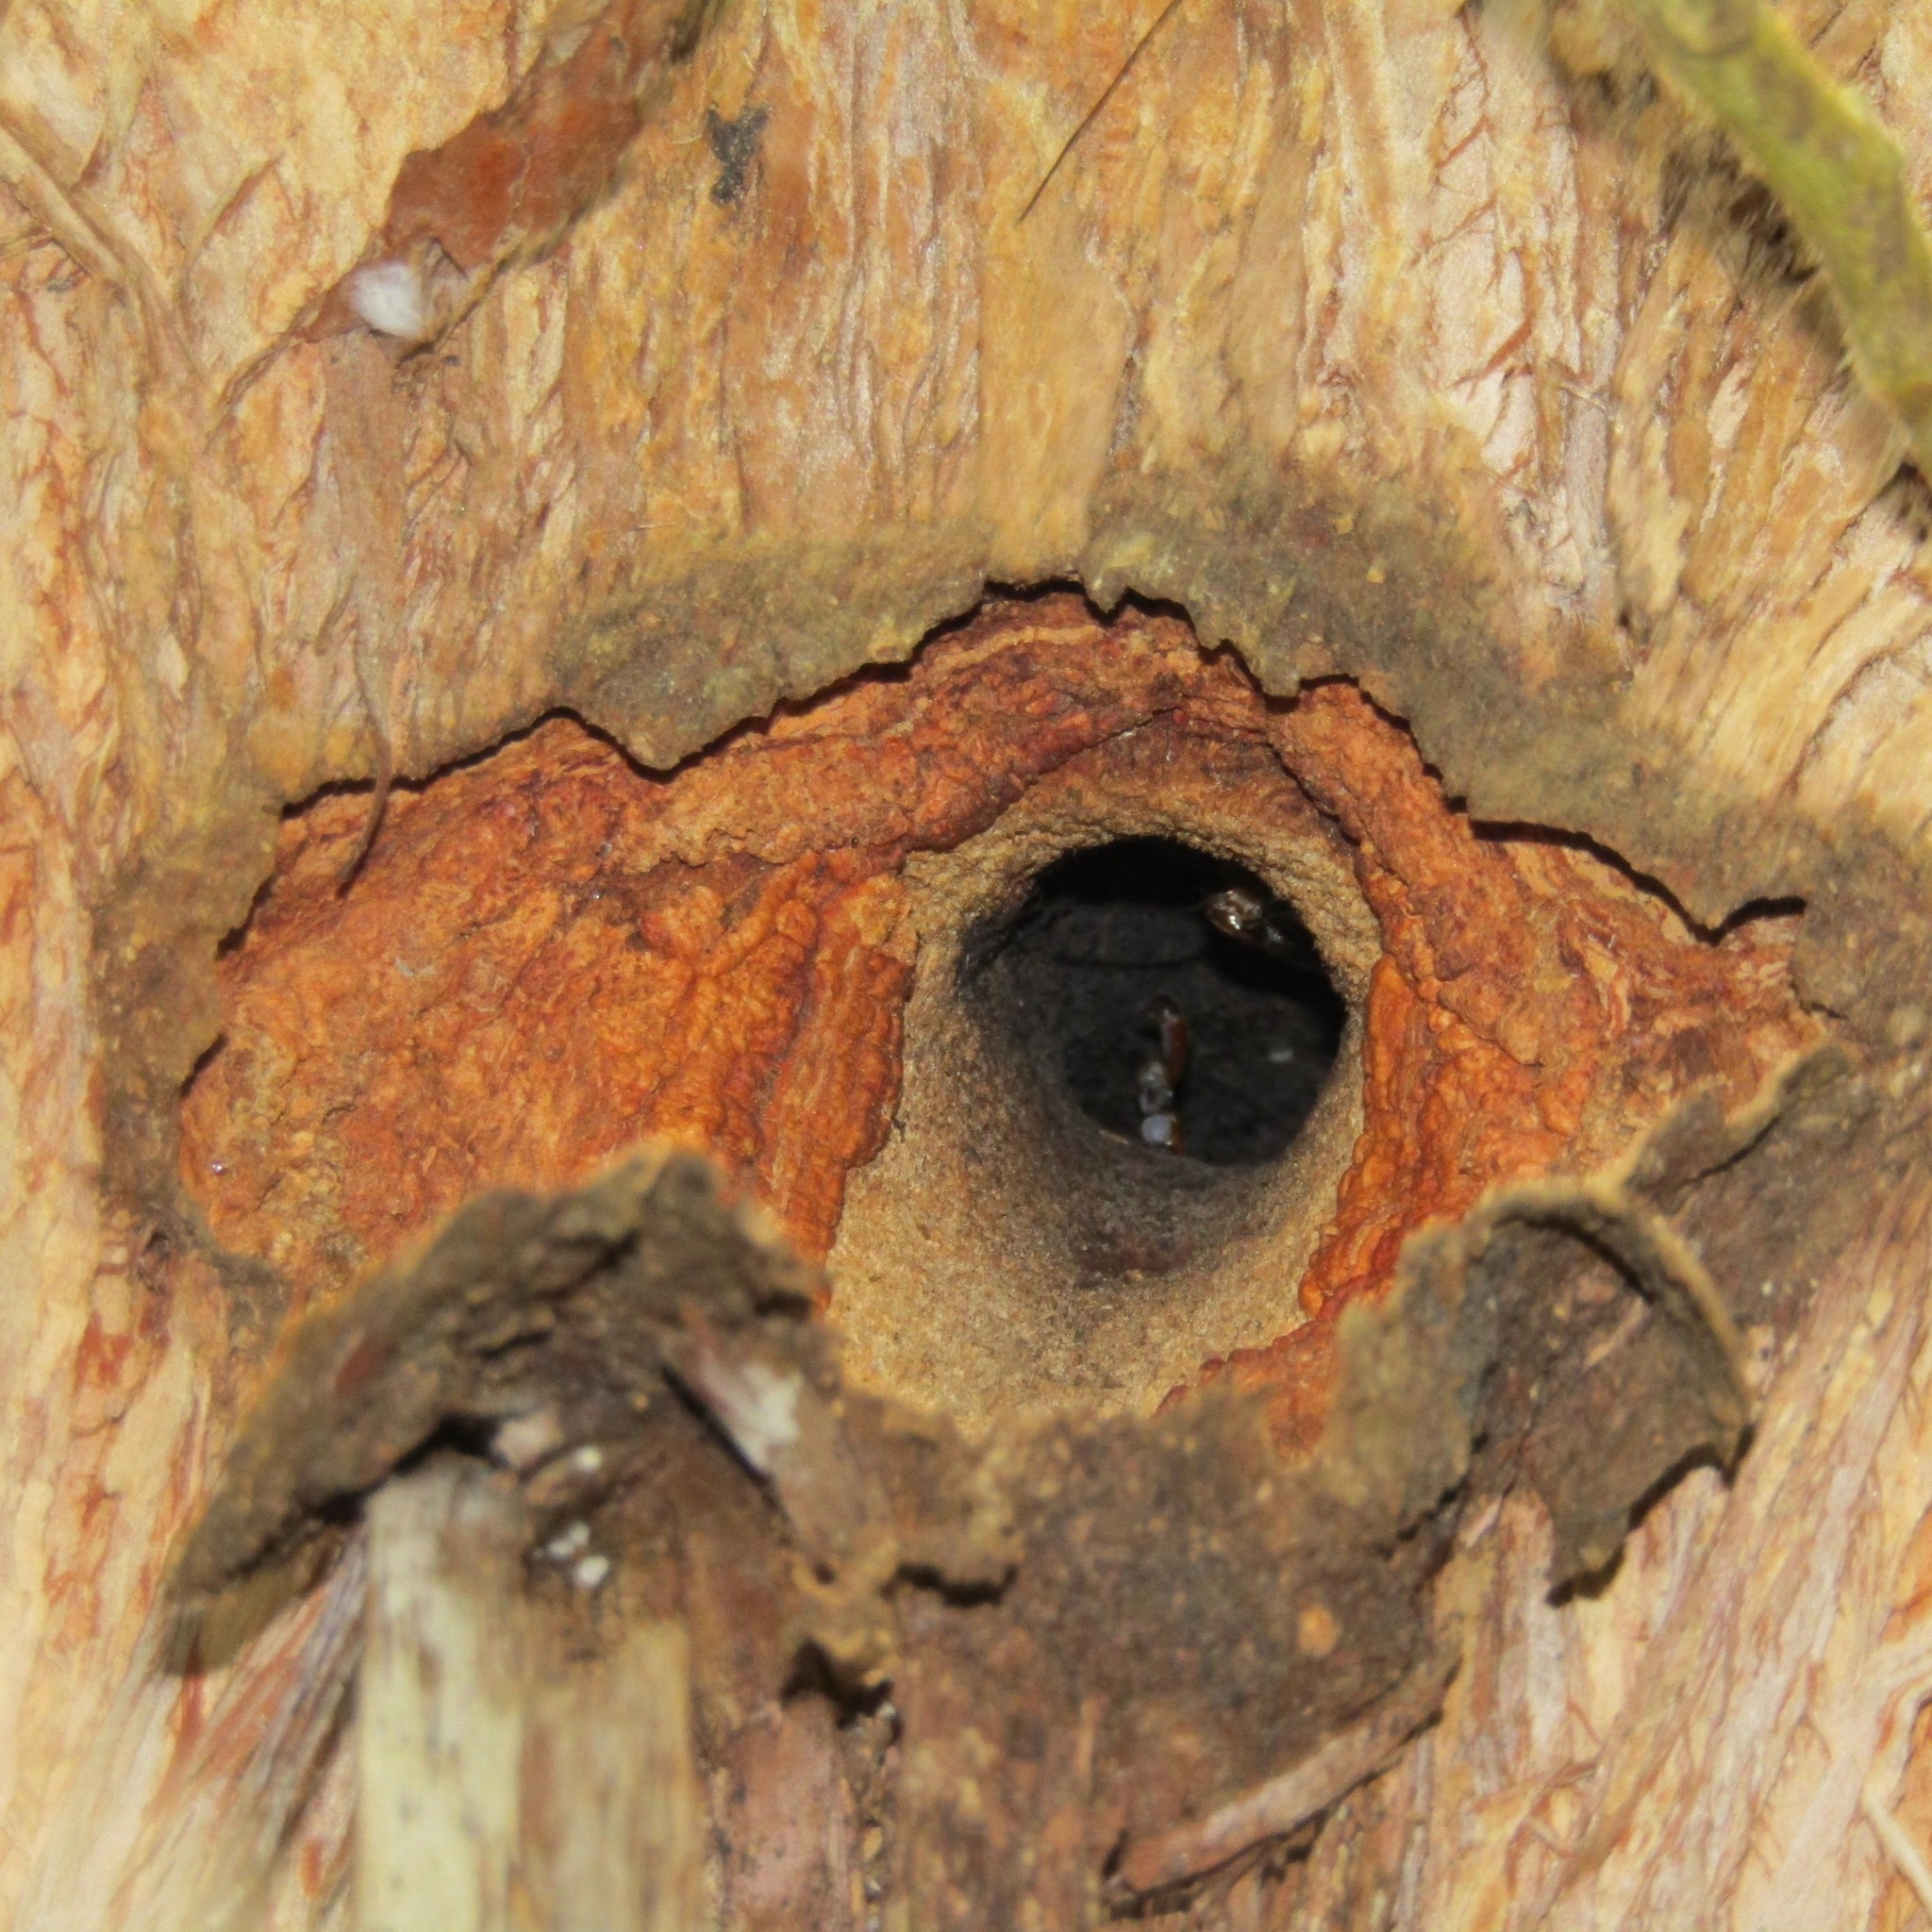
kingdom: Animalia
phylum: Arthropoda
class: Insecta
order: Lepidoptera
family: Hepialidae
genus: Aenetus
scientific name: Aenetus virescens
